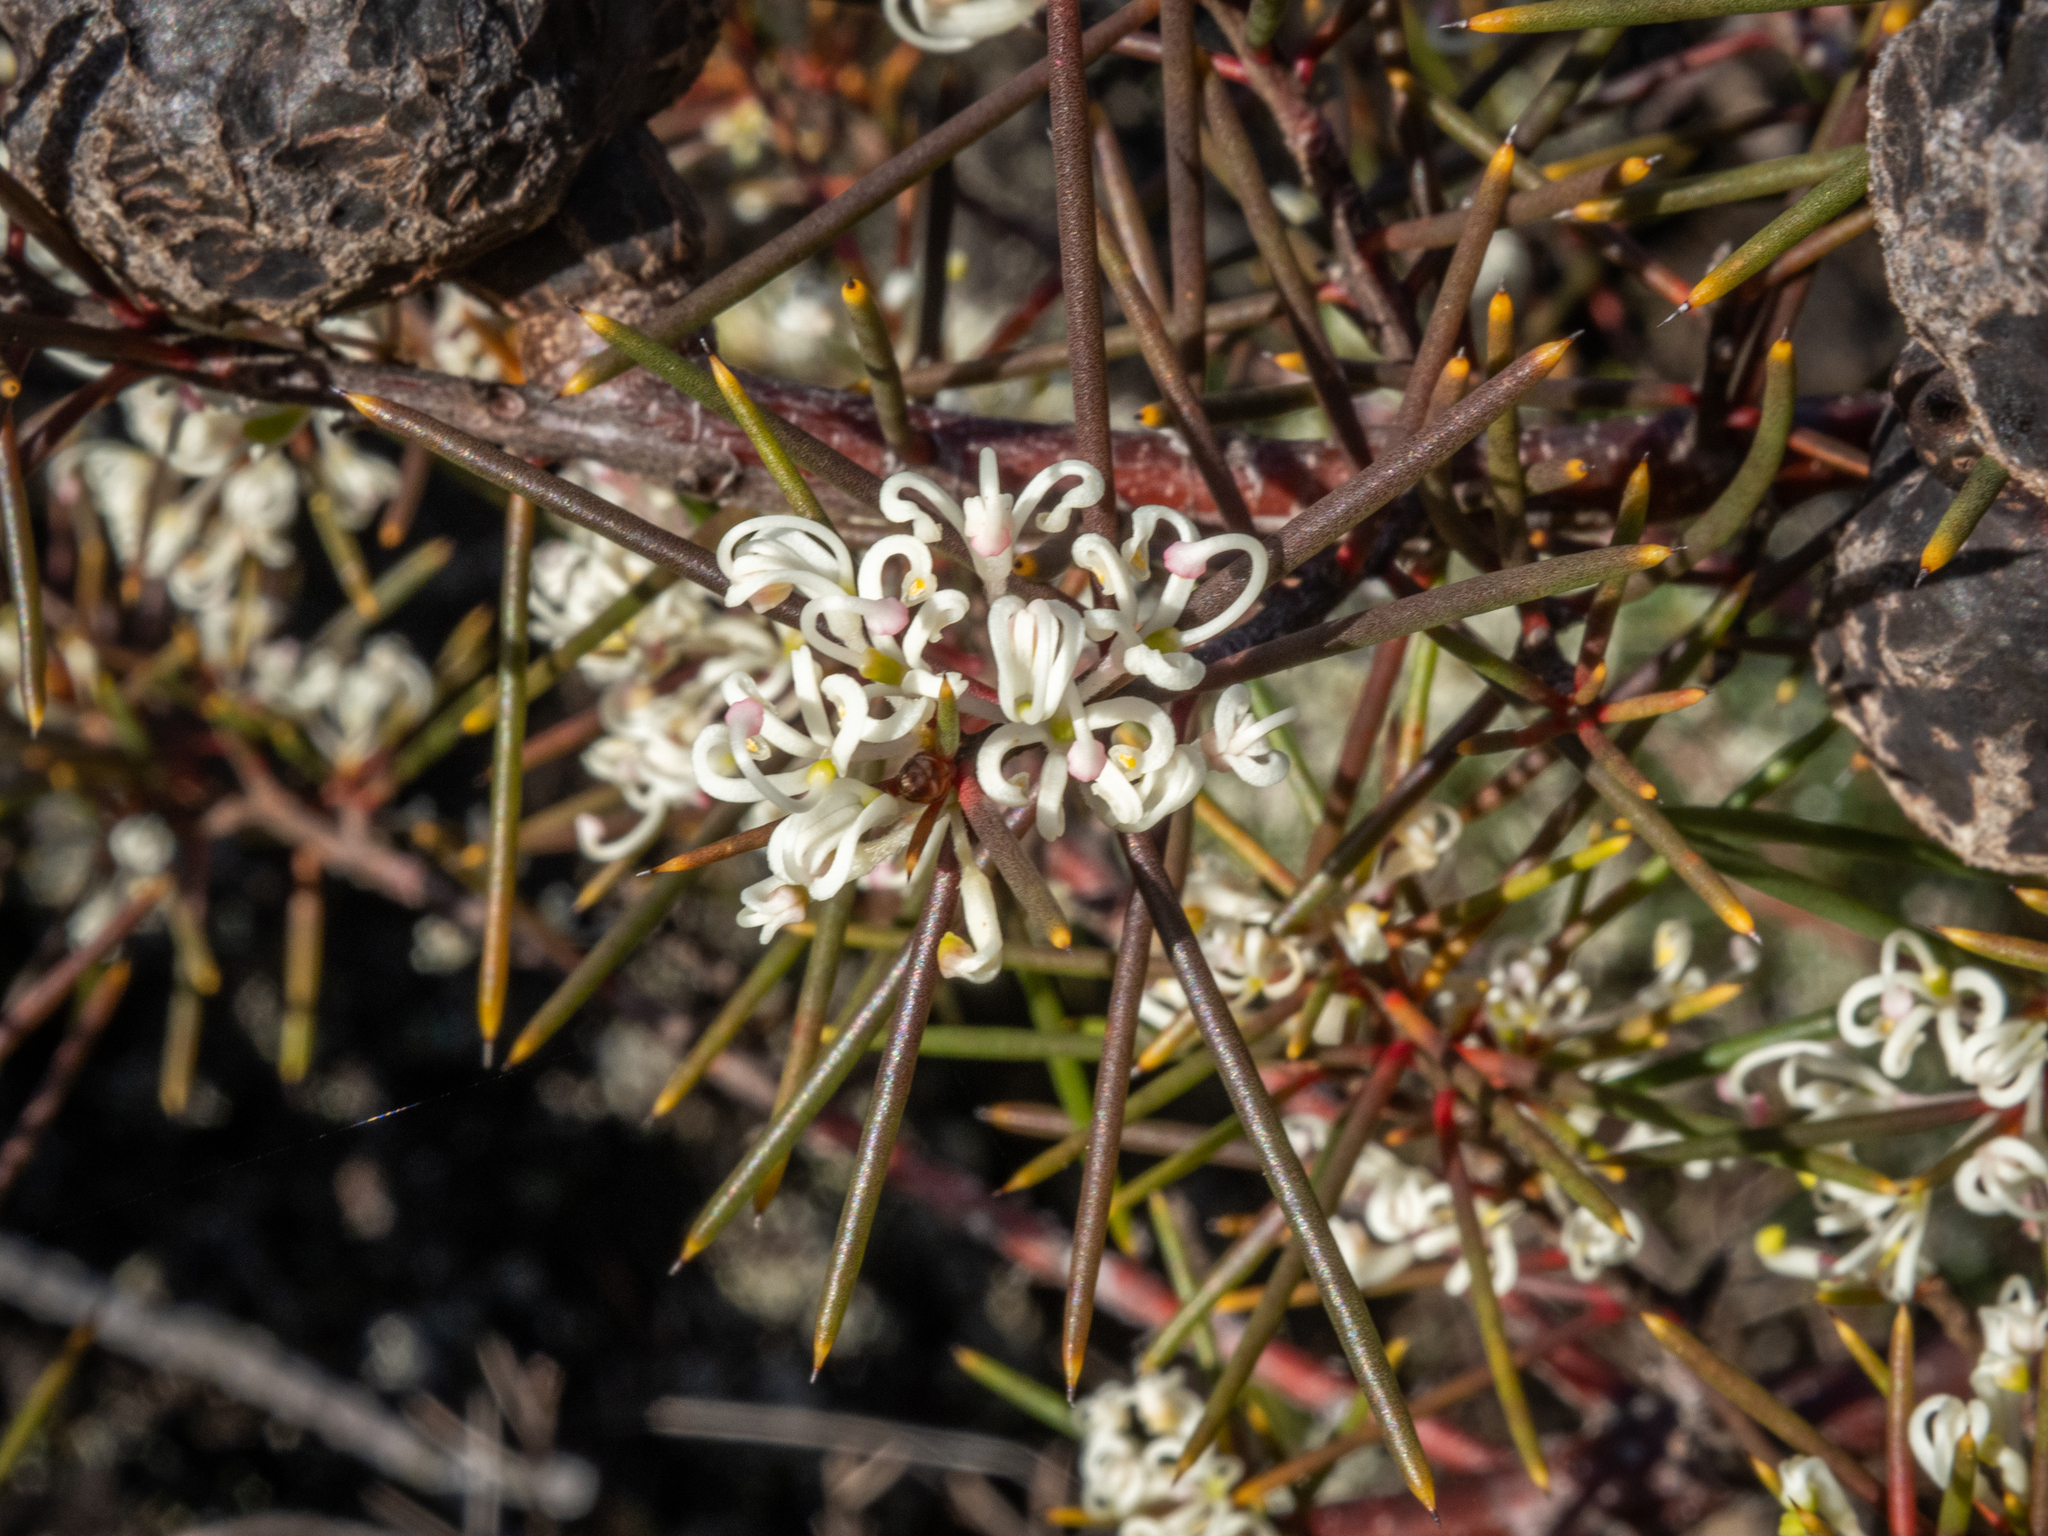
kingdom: Plantae
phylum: Tracheophyta
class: Magnoliopsida
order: Proteales
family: Proteaceae
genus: Hakea
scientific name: Hakea sericea
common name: Needle bush
